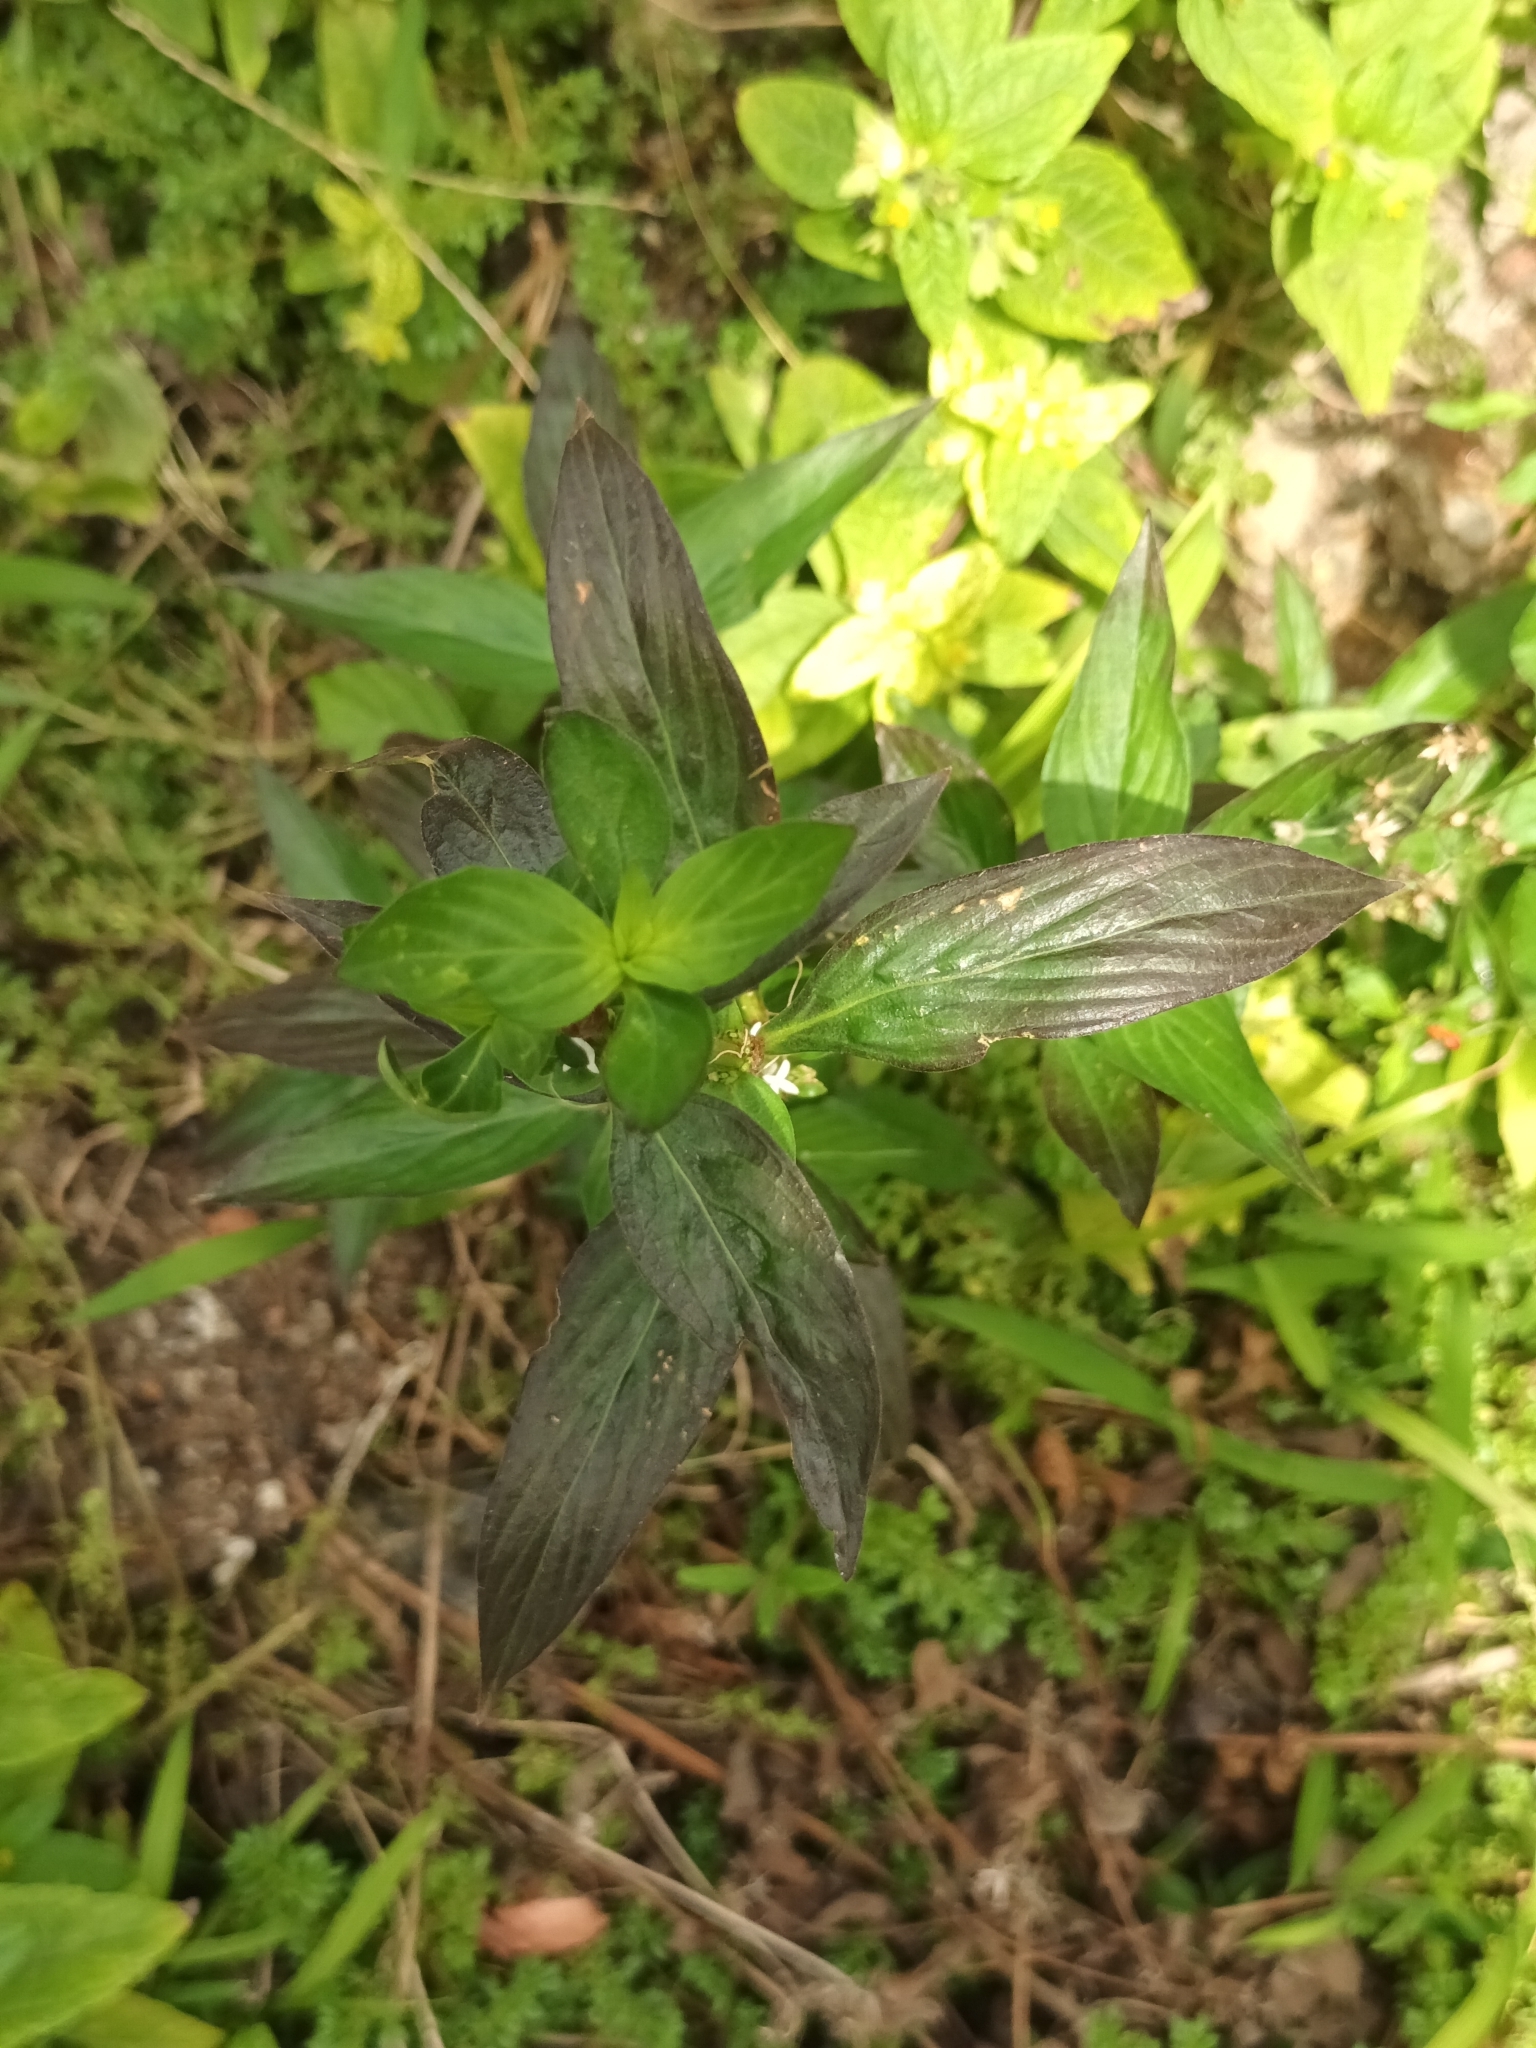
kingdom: Plantae
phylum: Tracheophyta
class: Magnoliopsida
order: Gentianales
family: Rubiaceae
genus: Spermacoce
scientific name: Spermacoce remota
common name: Woodland false buttonweed
